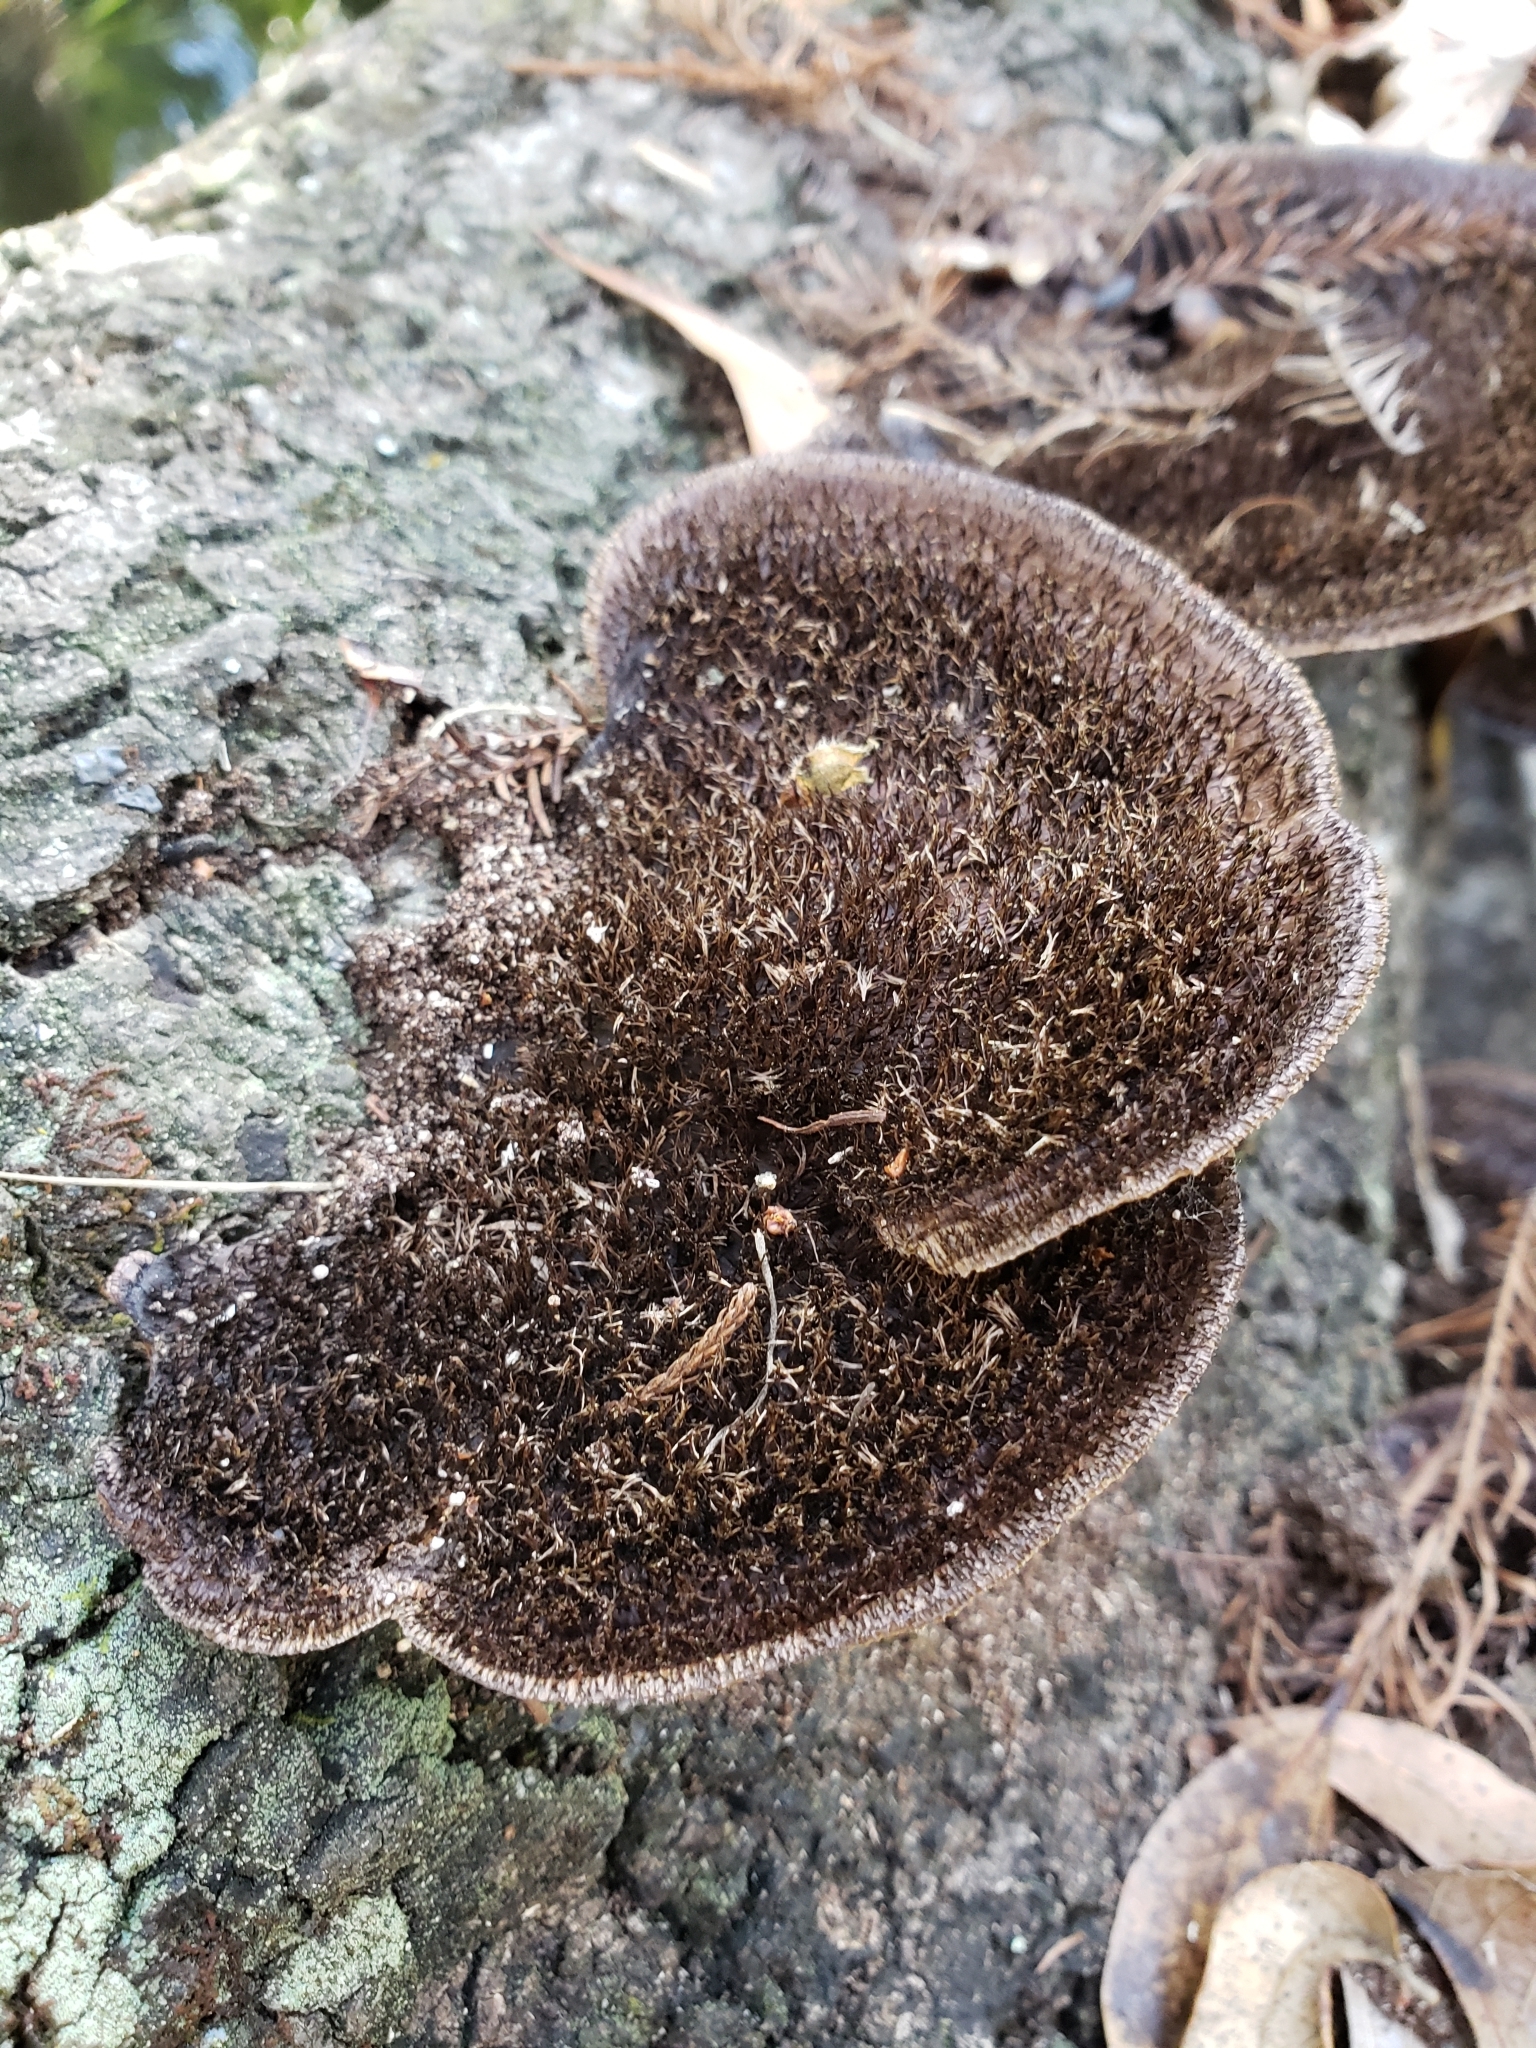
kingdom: Fungi
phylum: Basidiomycota
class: Agaricomycetes
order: Polyporales
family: Cerrenaceae
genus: Cerrena
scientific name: Cerrena hydnoides
